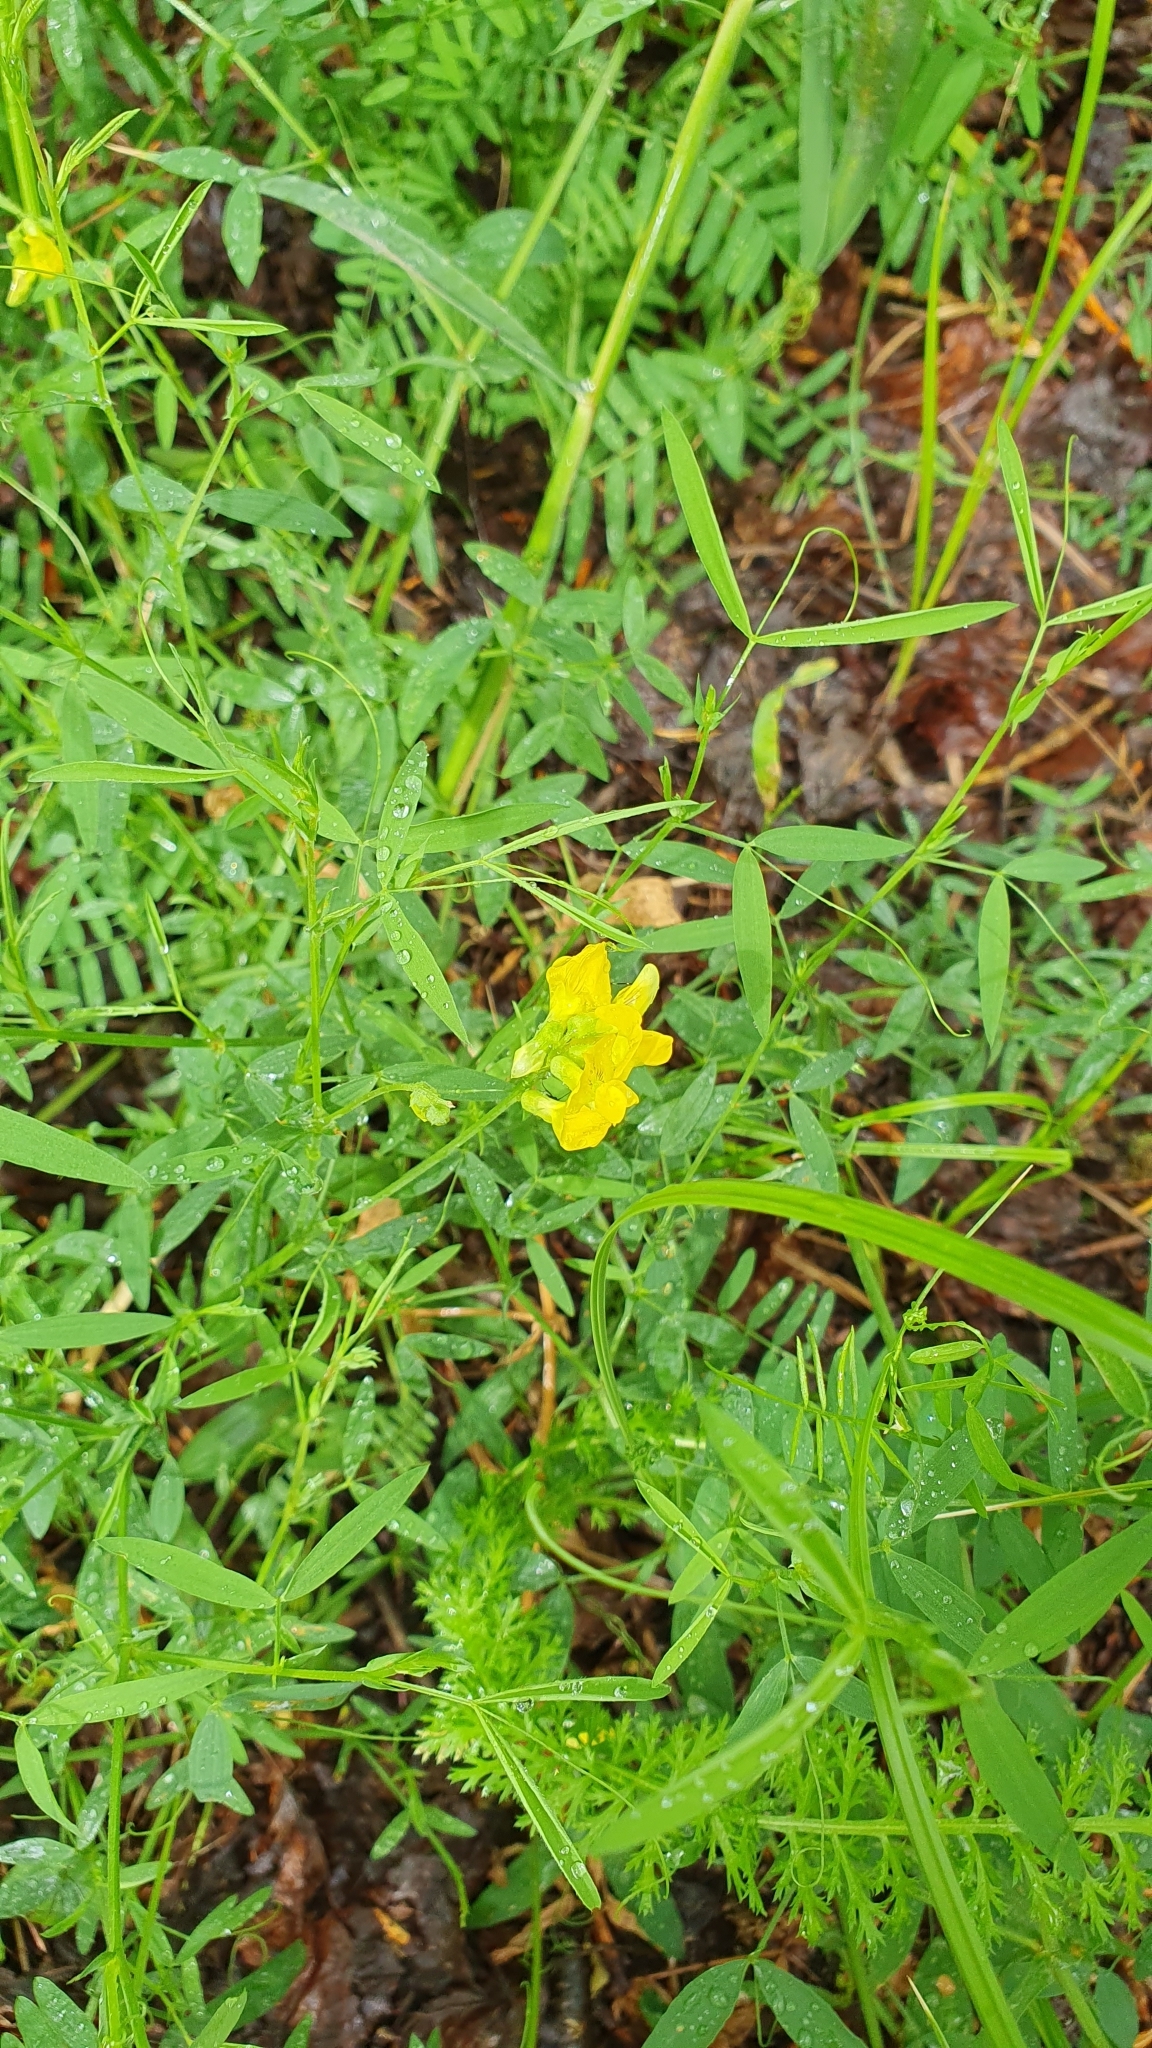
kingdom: Plantae
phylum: Tracheophyta
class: Magnoliopsida
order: Fabales
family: Fabaceae
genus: Lathyrus
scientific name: Lathyrus pratensis
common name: Meadow vetchling
